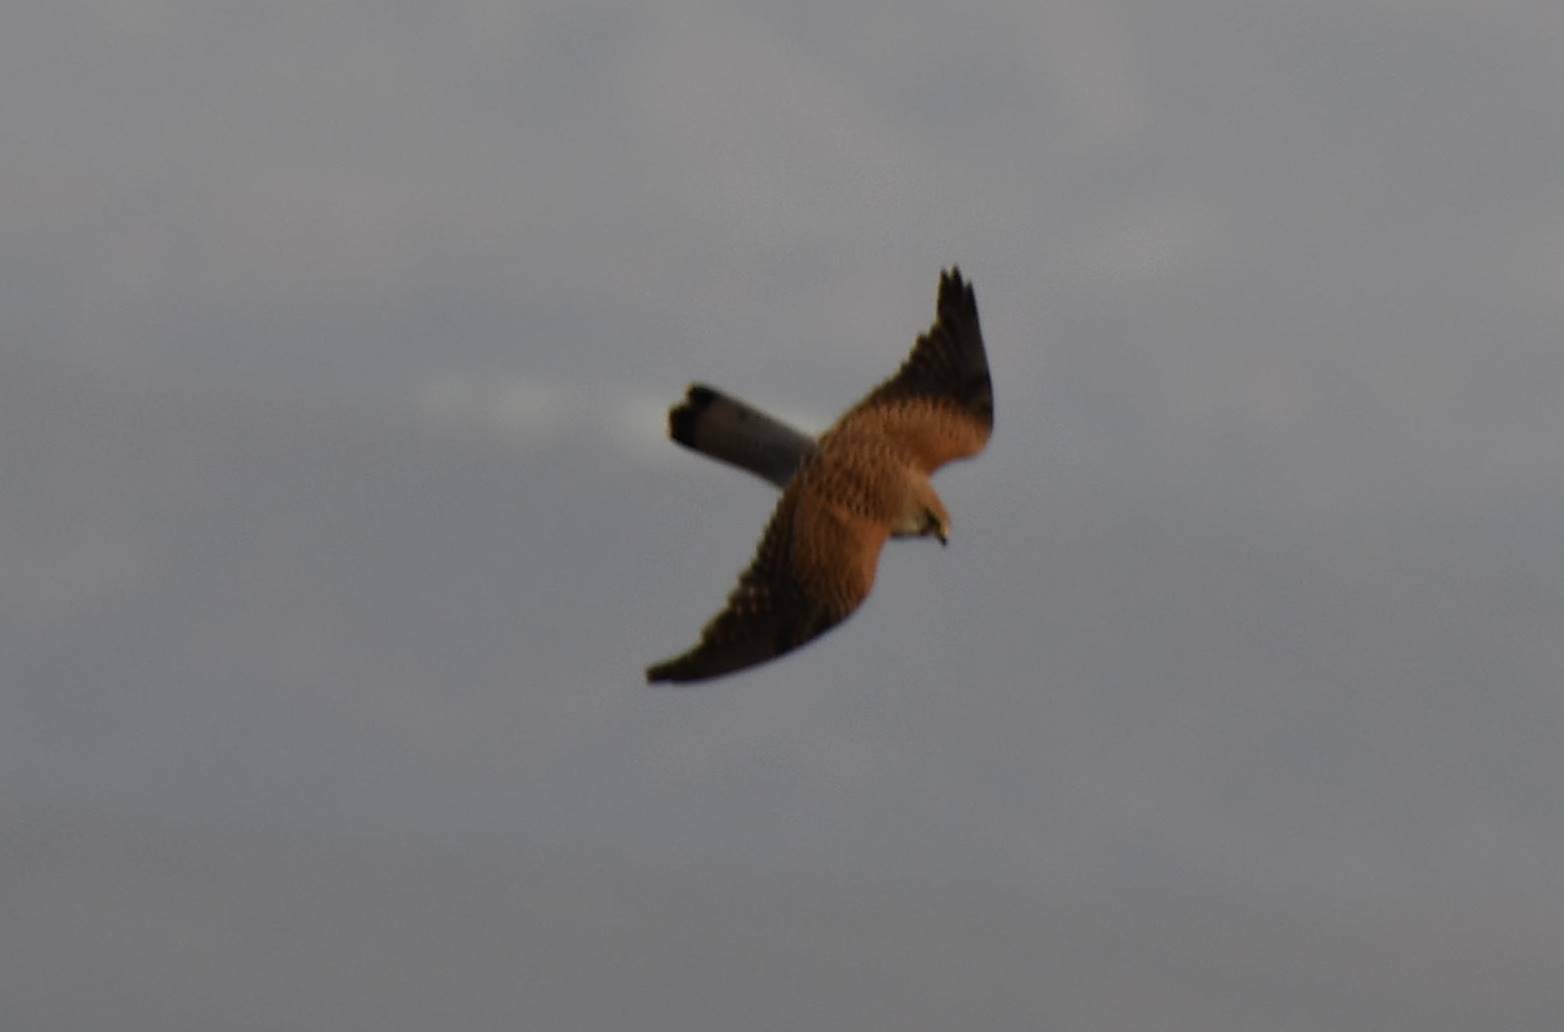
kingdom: Animalia
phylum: Chordata
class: Aves
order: Falconiformes
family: Falconidae
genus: Falco
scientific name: Falco tinnunculus
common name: Common kestrel
